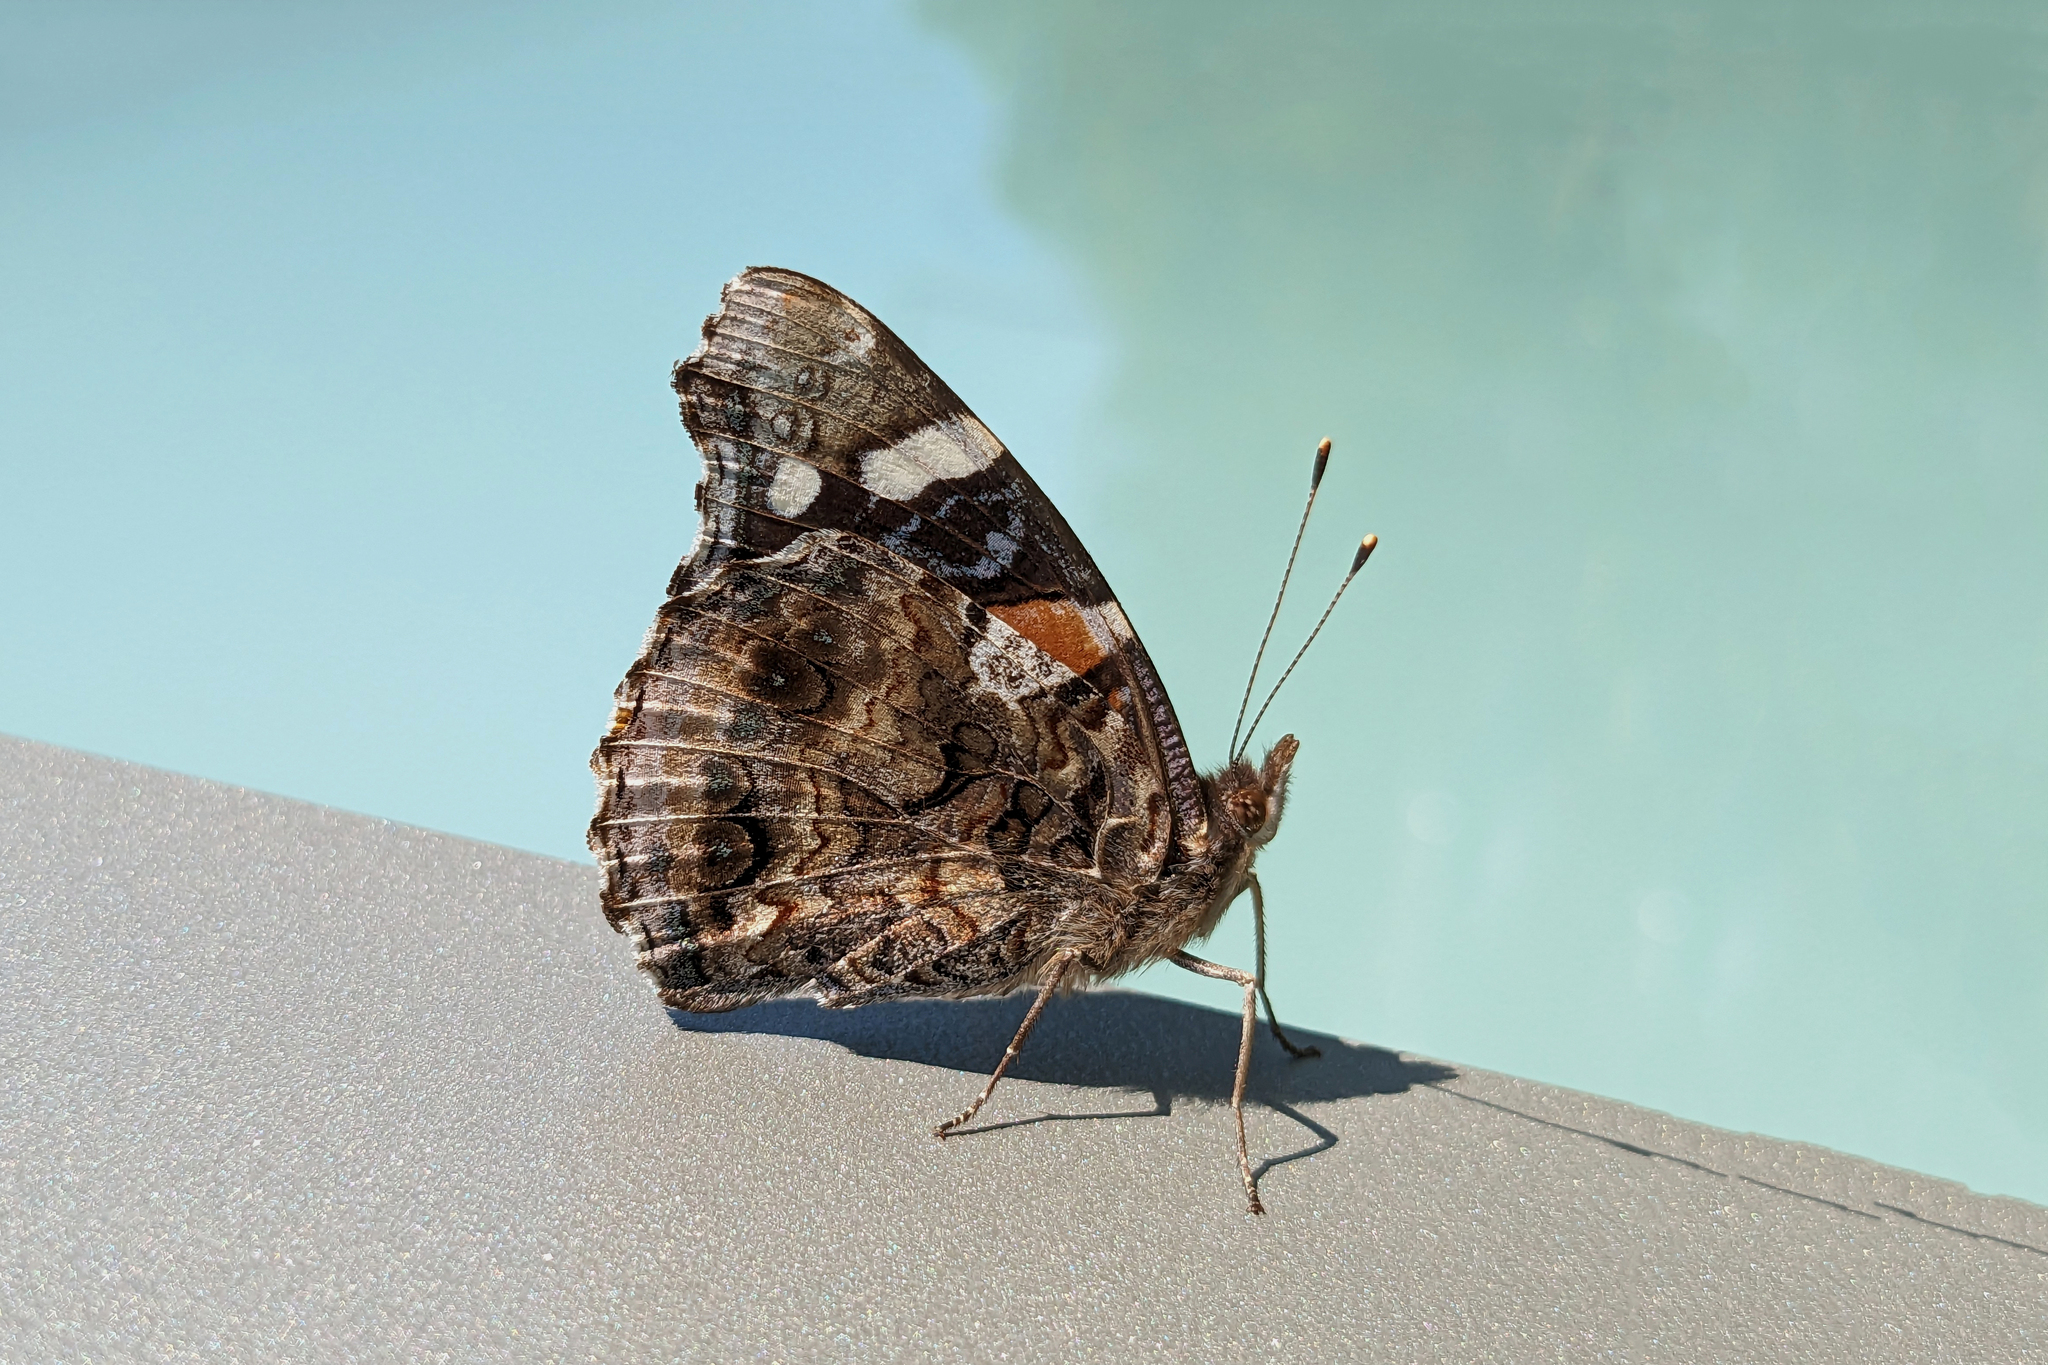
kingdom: Animalia
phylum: Arthropoda
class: Insecta
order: Lepidoptera
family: Nymphalidae
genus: Vanessa
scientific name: Vanessa atalanta
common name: Red admiral
